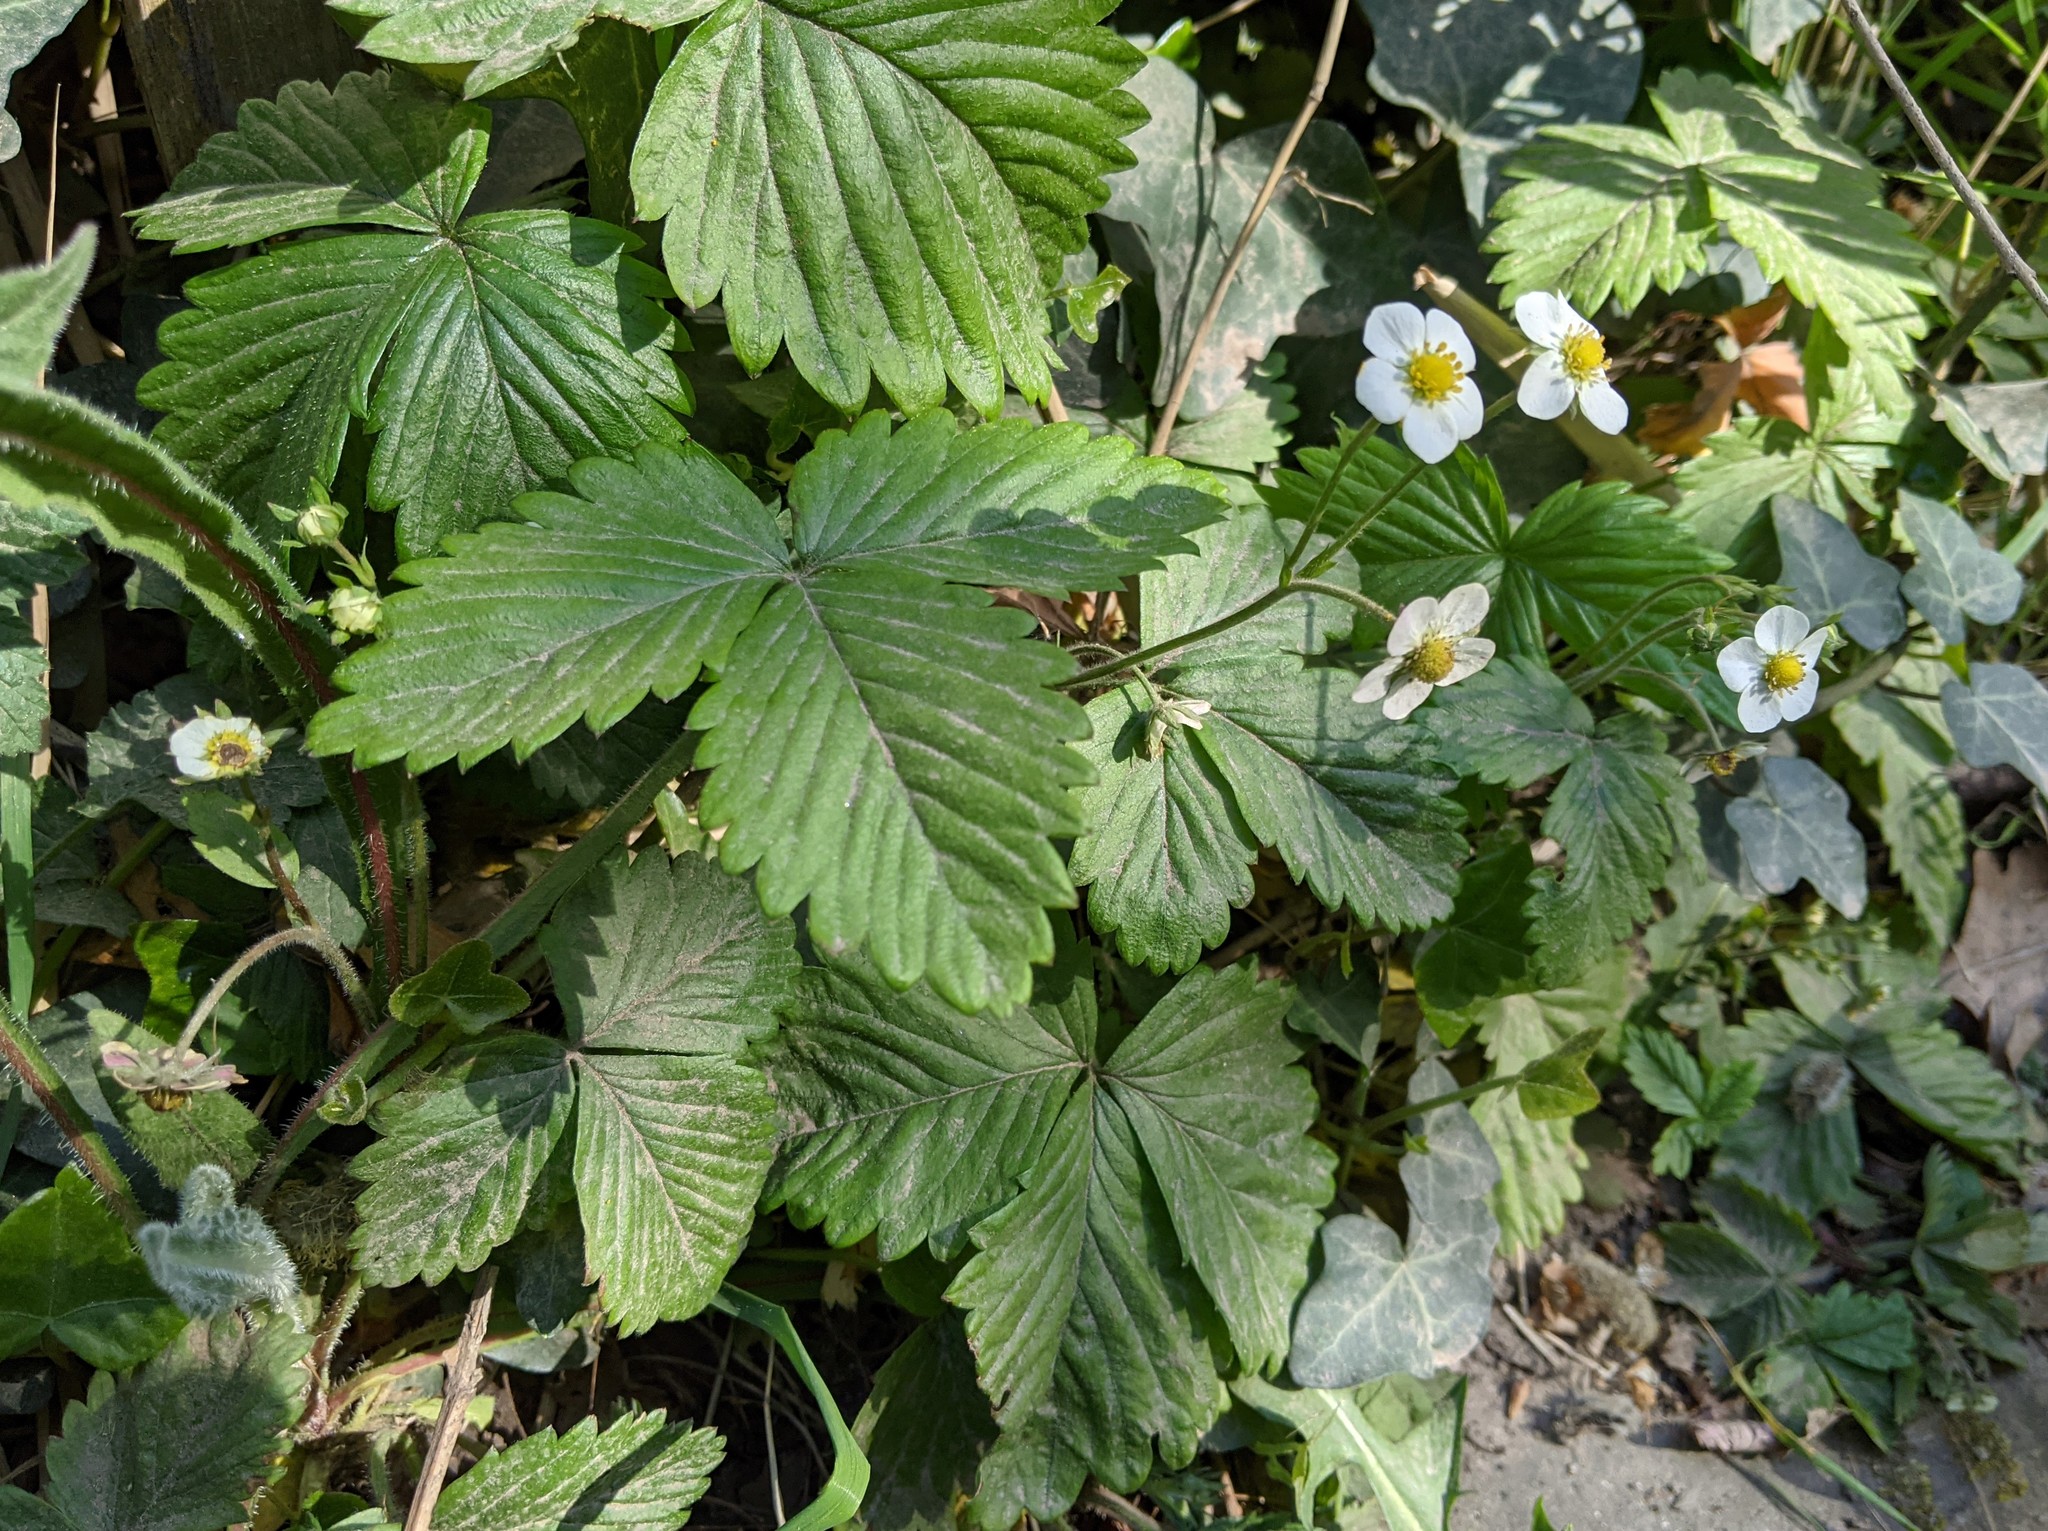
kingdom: Plantae
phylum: Tracheophyta
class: Magnoliopsida
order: Rosales
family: Rosaceae
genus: Fragaria
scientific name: Fragaria vesca
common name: Wild strawberry
